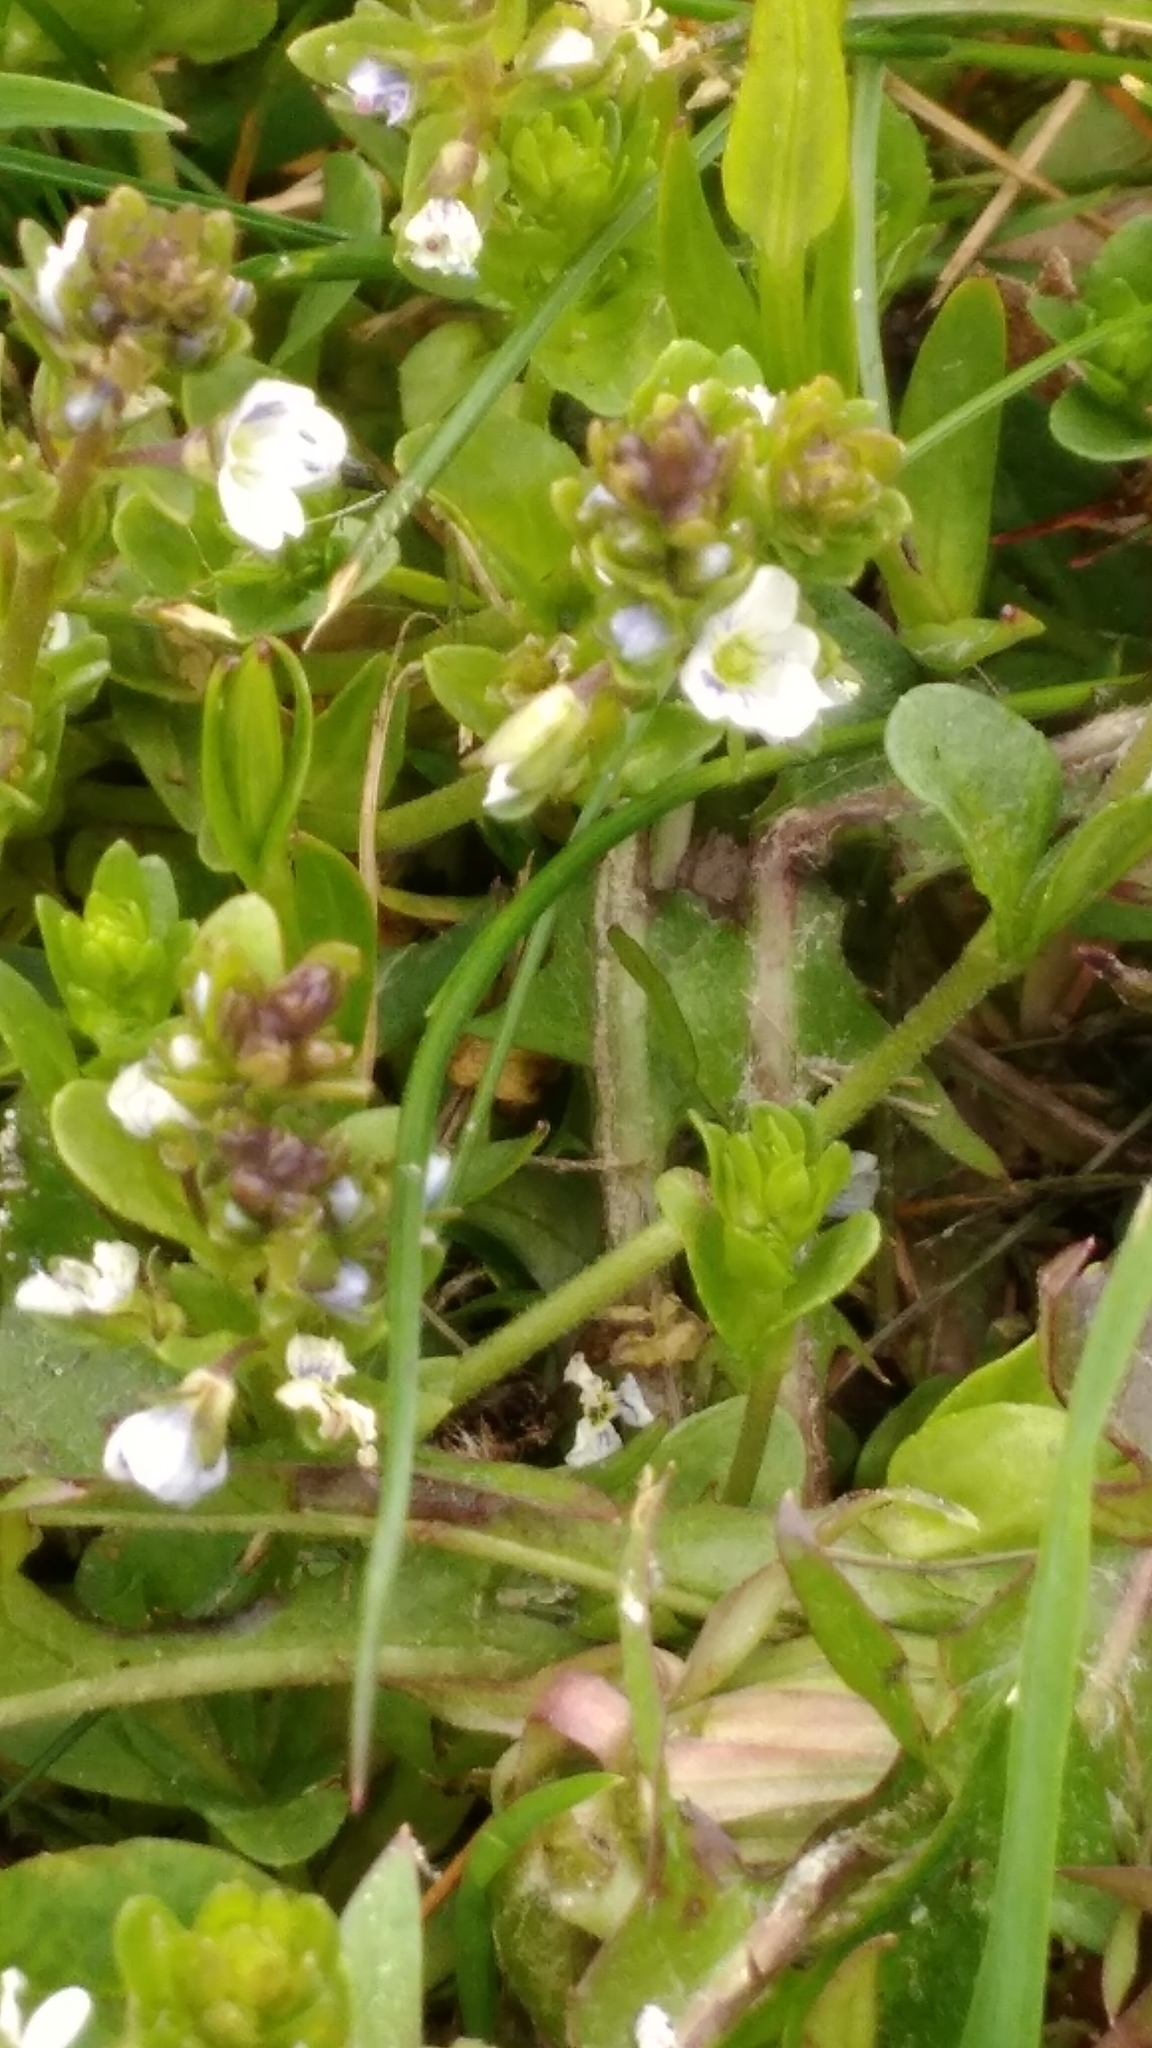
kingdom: Plantae
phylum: Tracheophyta
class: Magnoliopsida
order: Lamiales
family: Plantaginaceae
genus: Veronica
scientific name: Veronica serpyllifolia
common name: Thyme-leaved speedwell
